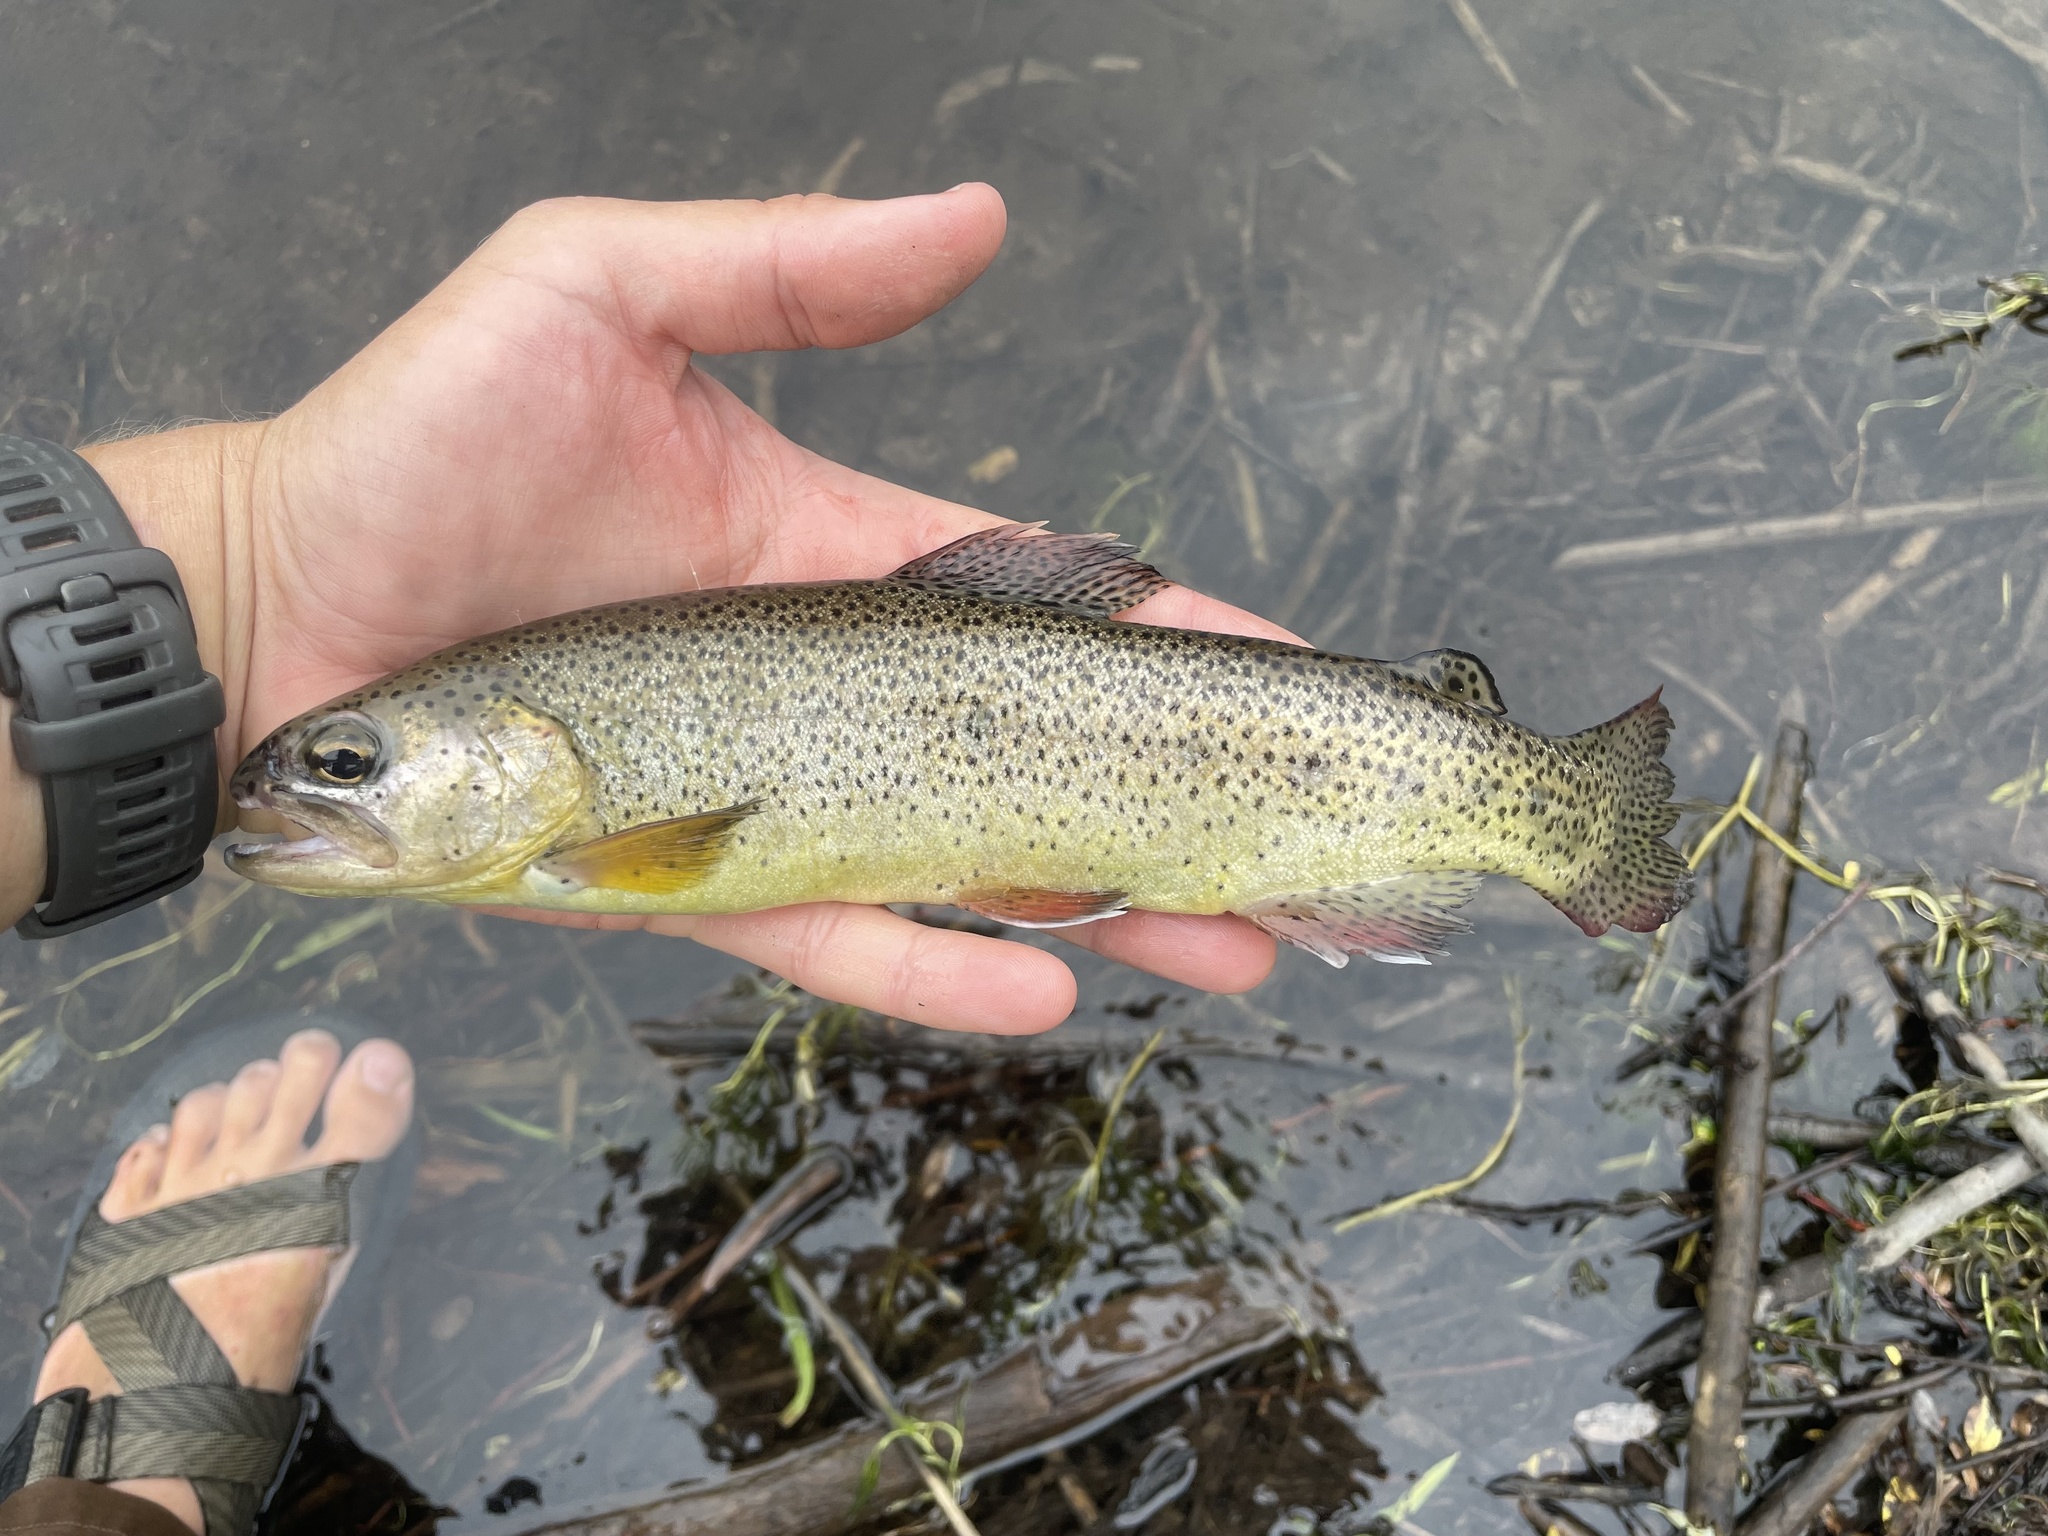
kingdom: Animalia
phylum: Chordata
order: Salmoniformes
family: Salmonidae
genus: Oncorhynchus
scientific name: Oncorhynchus apache
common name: Apache trout
